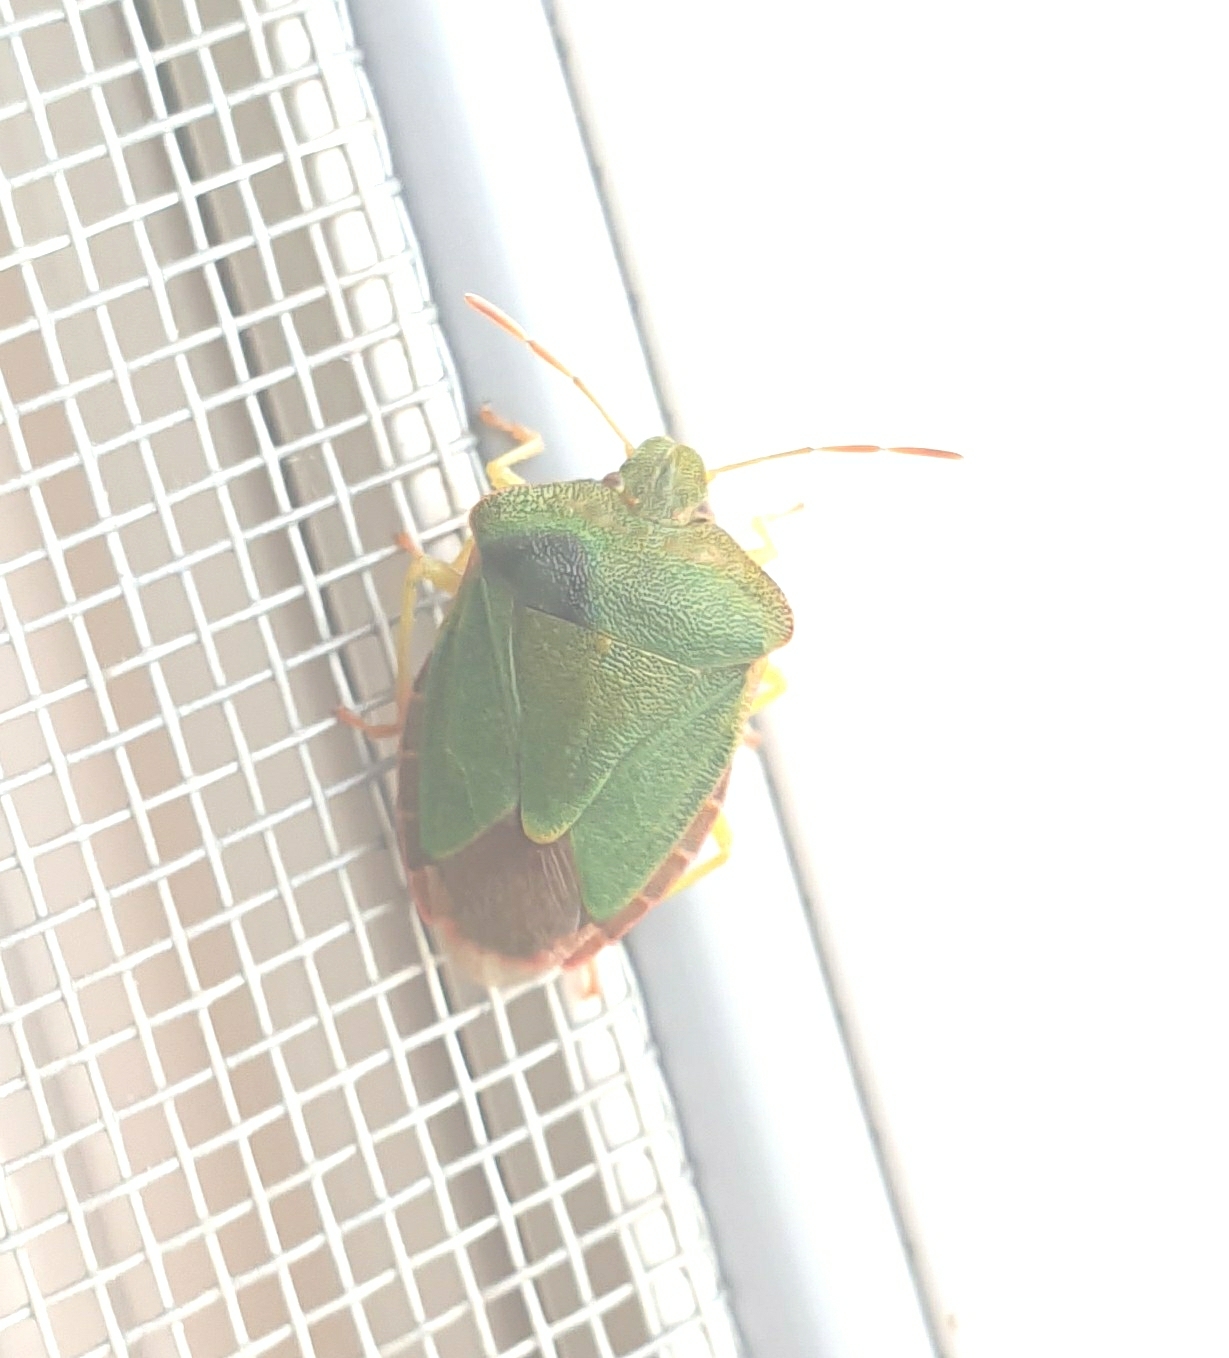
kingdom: Animalia
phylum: Arthropoda
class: Insecta
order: Hemiptera
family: Pentatomidae
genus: Palomena
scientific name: Palomena prasina
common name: Green shieldbug
